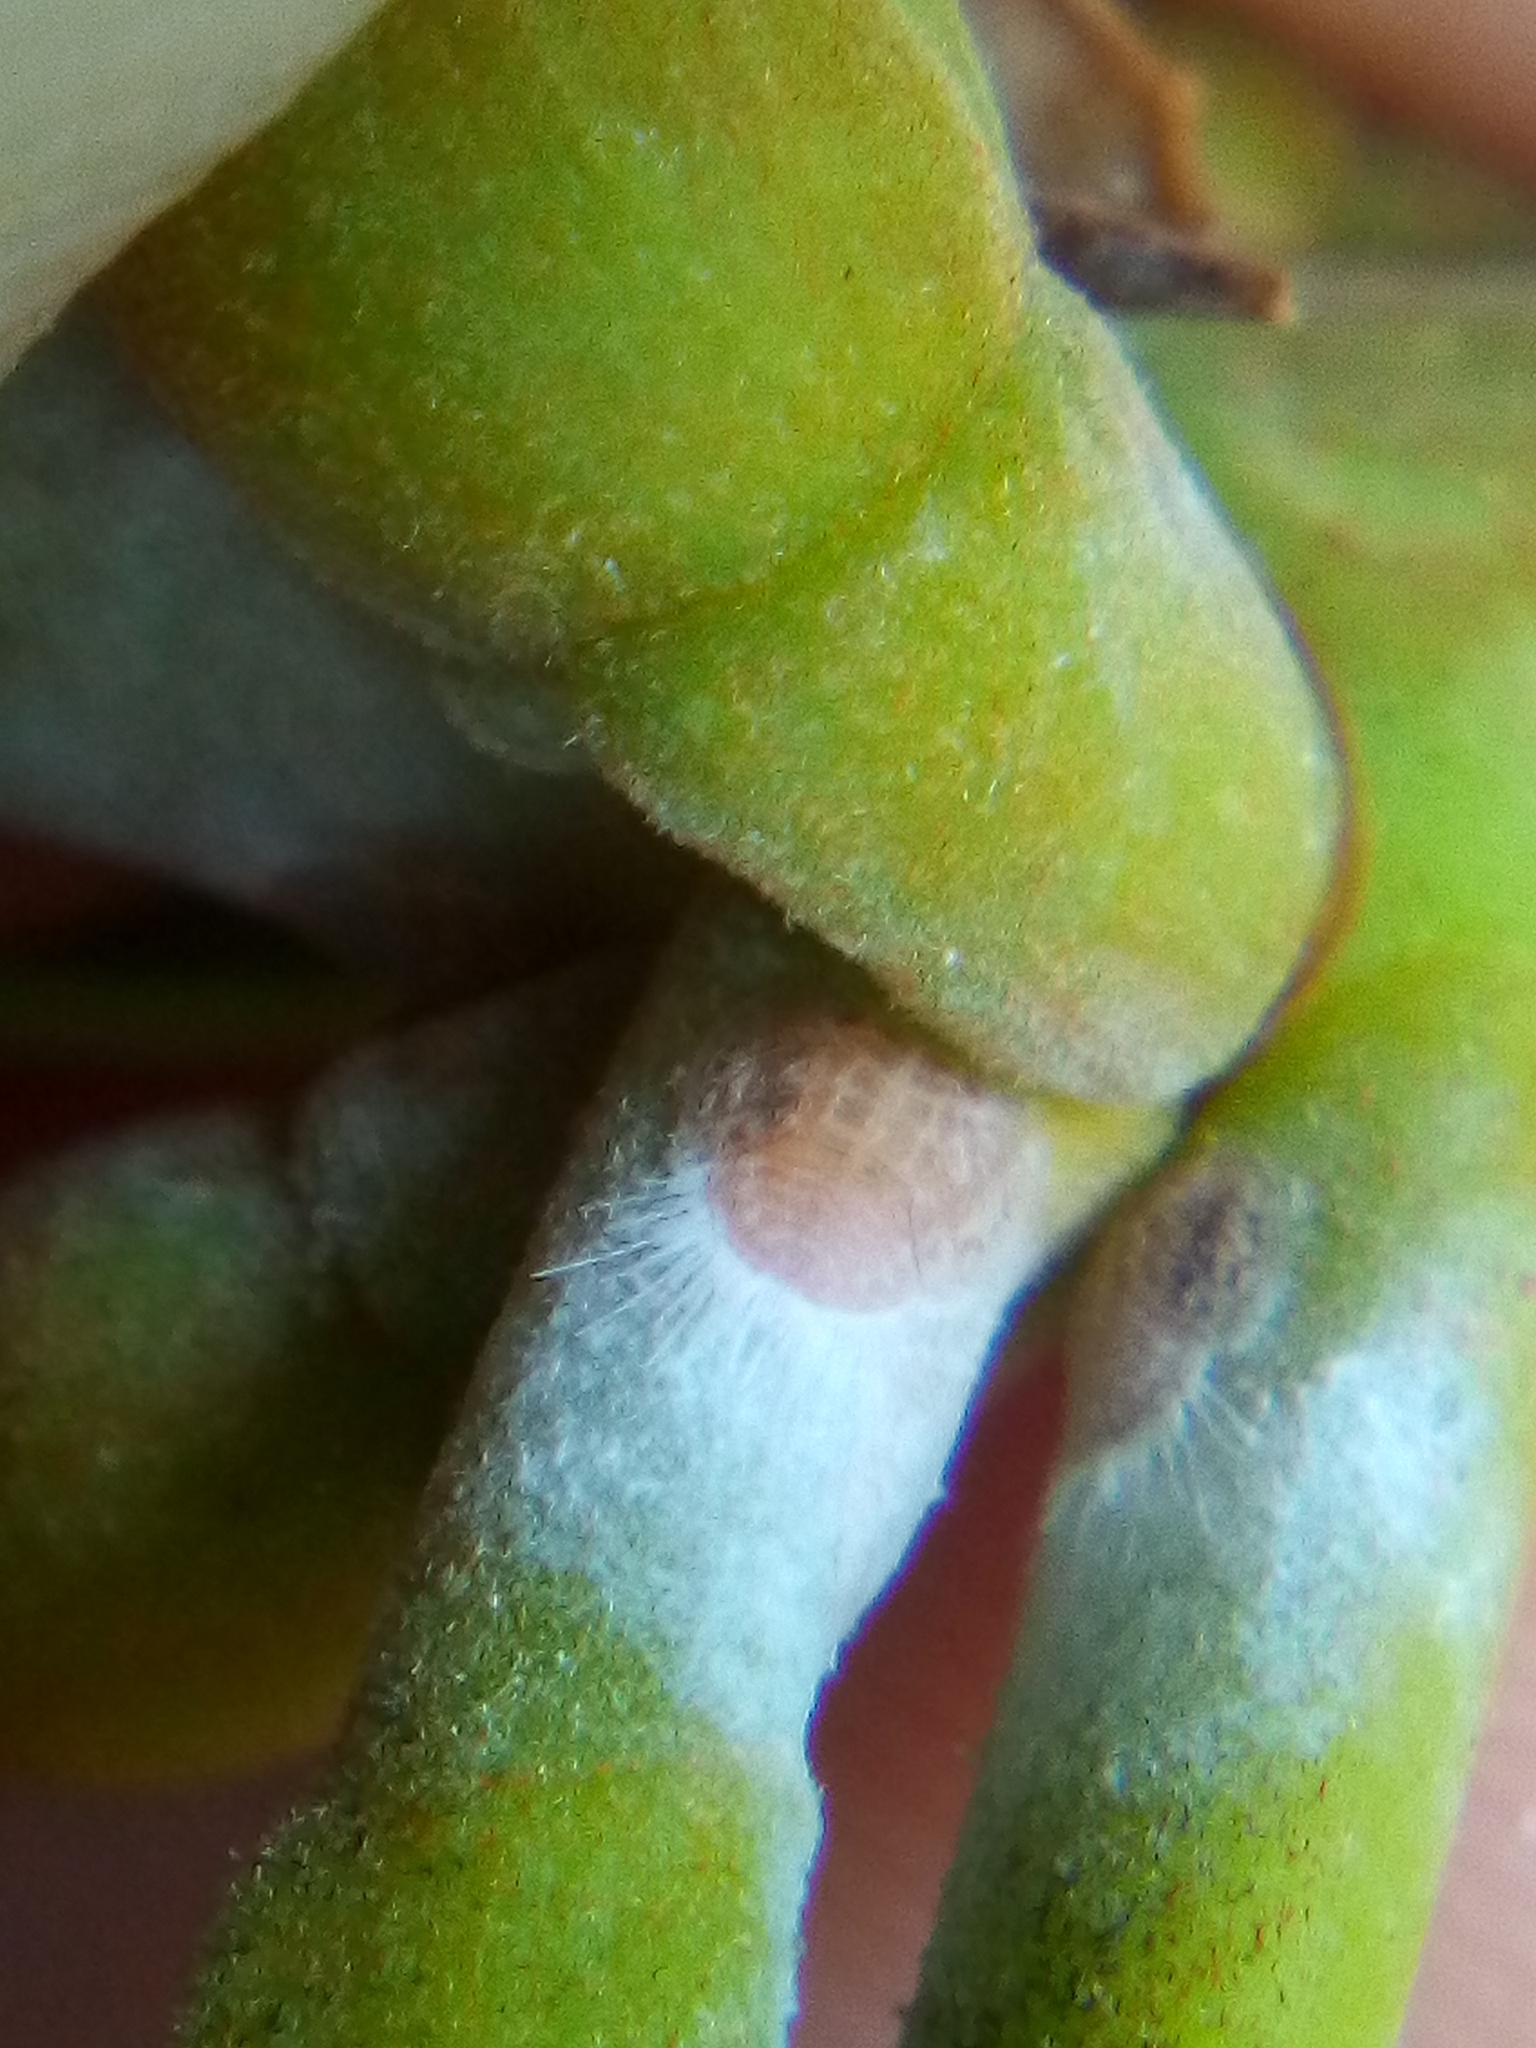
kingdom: Animalia
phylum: Arthropoda
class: Insecta
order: Hemiptera
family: Homotomidae
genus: Mycopsylla
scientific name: Mycopsylla obliqua
